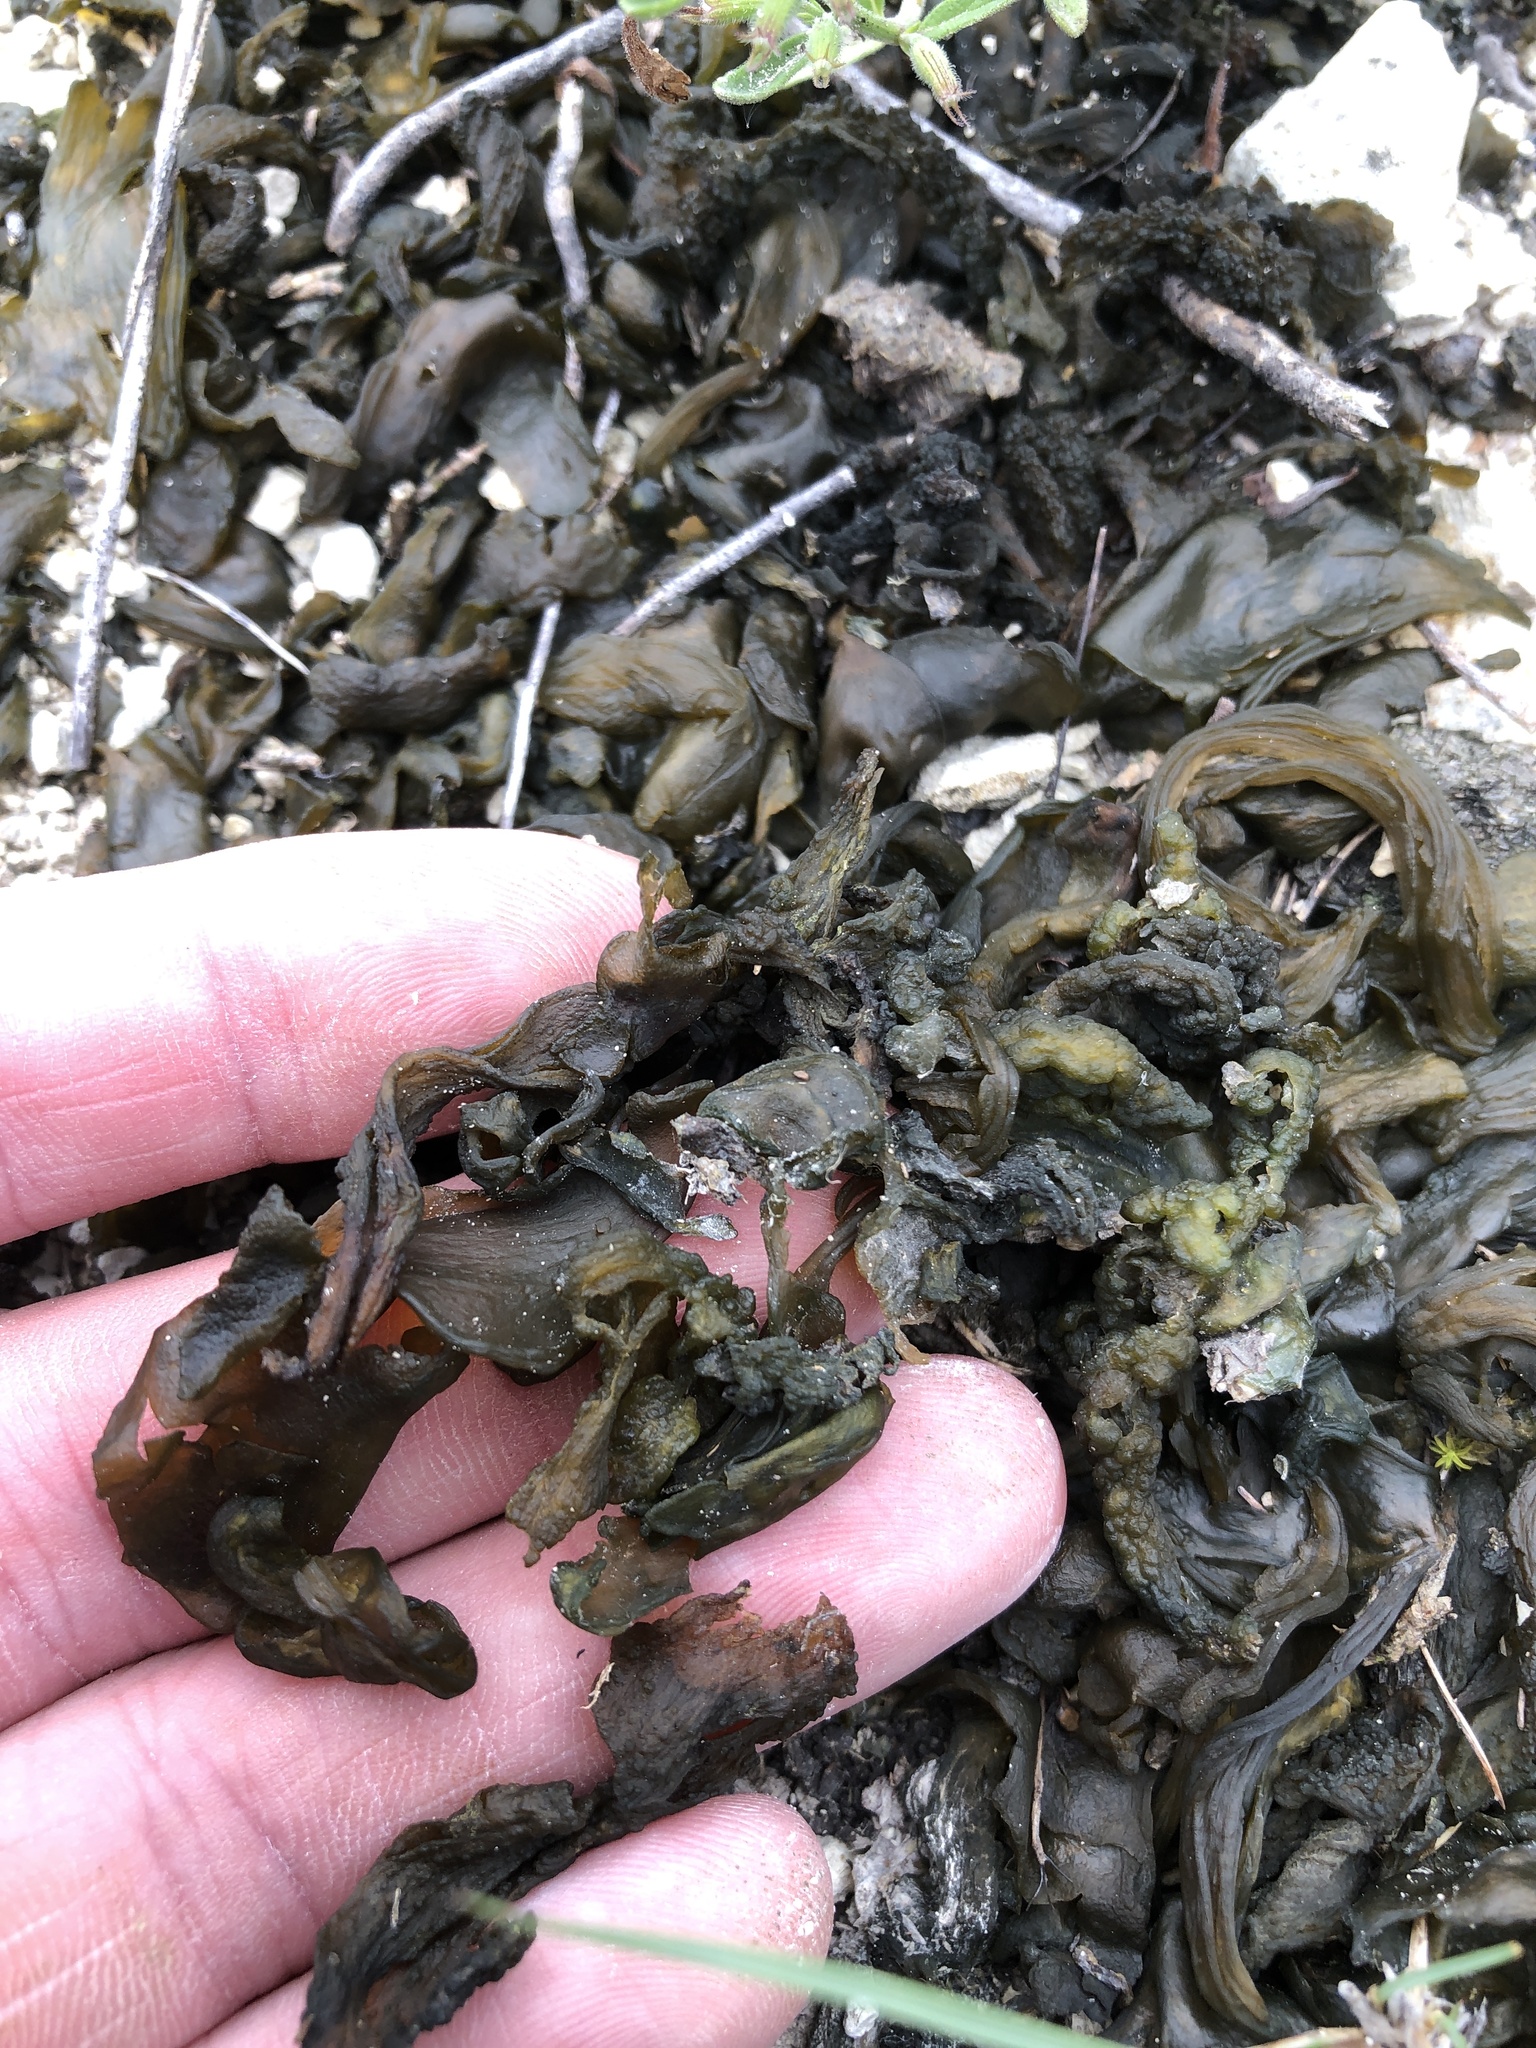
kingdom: Bacteria
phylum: Cyanobacteria
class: Cyanobacteriia
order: Cyanobacteriales
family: Nostocaceae
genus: Nostoc
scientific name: Nostoc commune
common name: Star jelly
